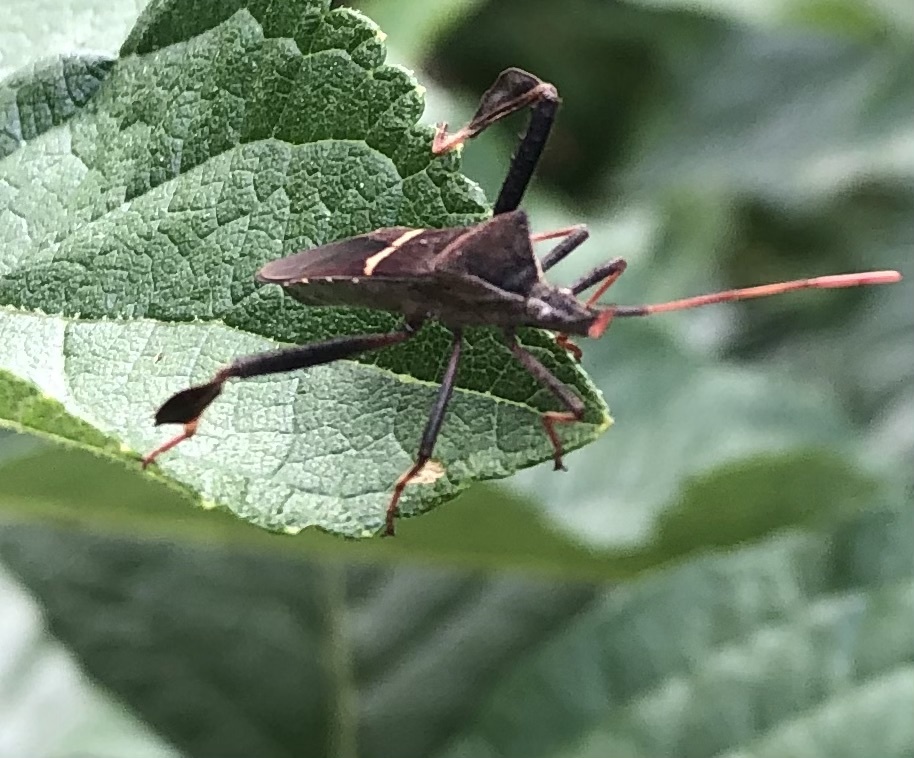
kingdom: Animalia
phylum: Arthropoda
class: Insecta
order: Hemiptera
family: Coreidae
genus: Leptoglossus
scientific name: Leptoglossus phyllopus
